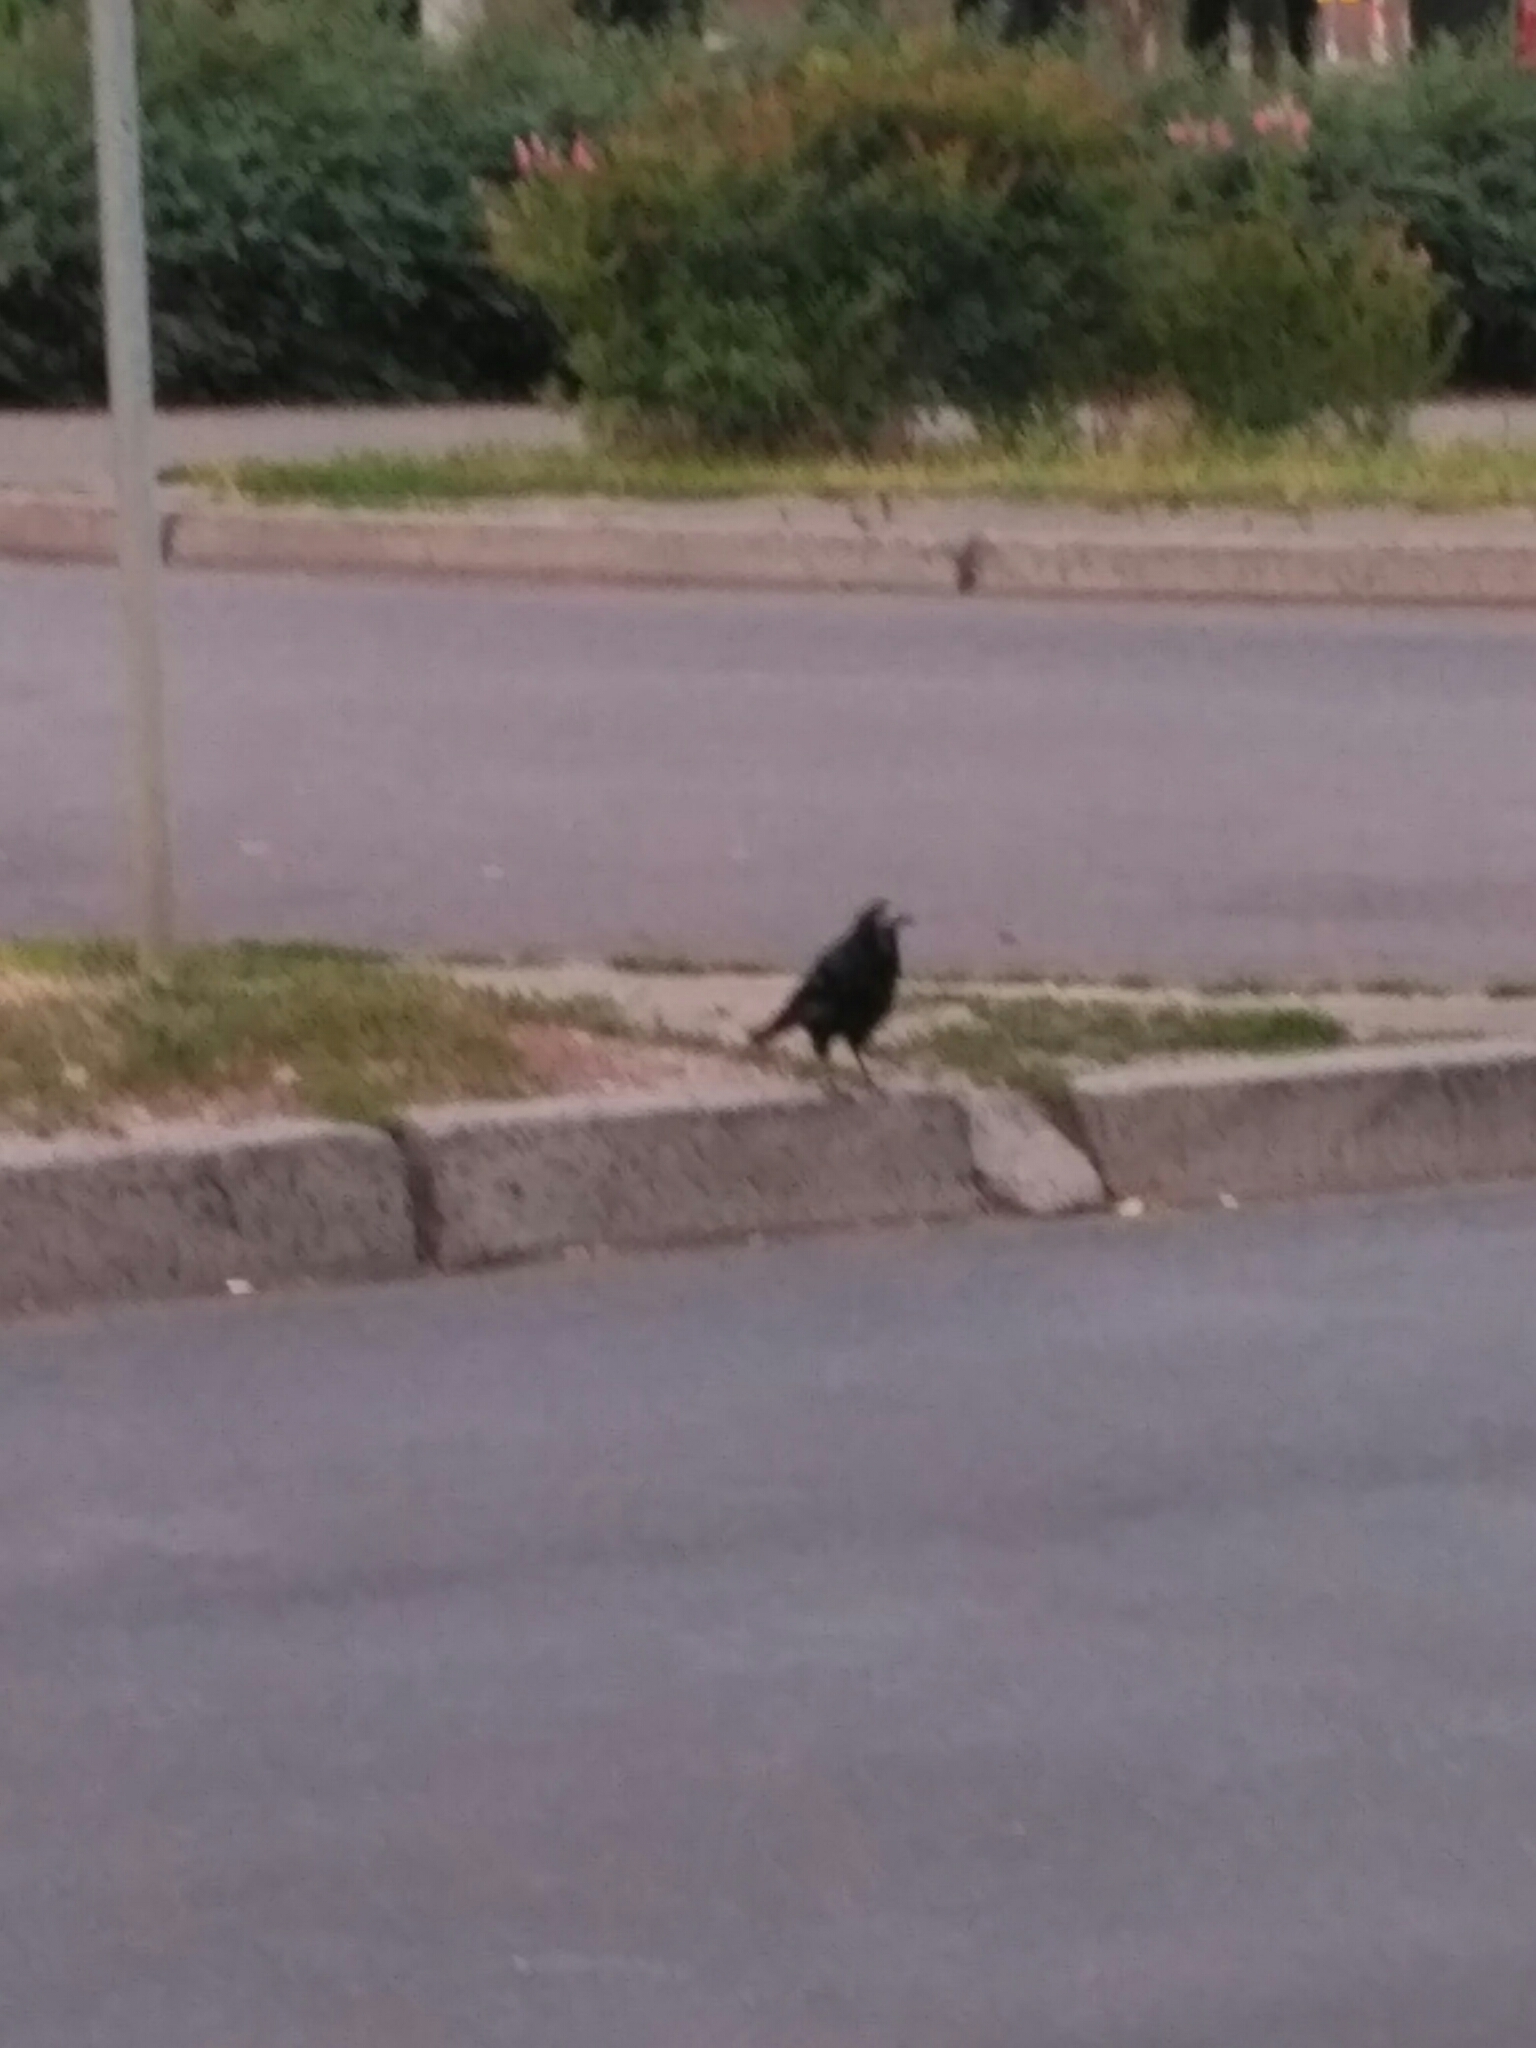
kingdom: Animalia
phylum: Chordata
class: Aves
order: Passeriformes
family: Corvidae
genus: Corvus
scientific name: Corvus frugilegus
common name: Rook
